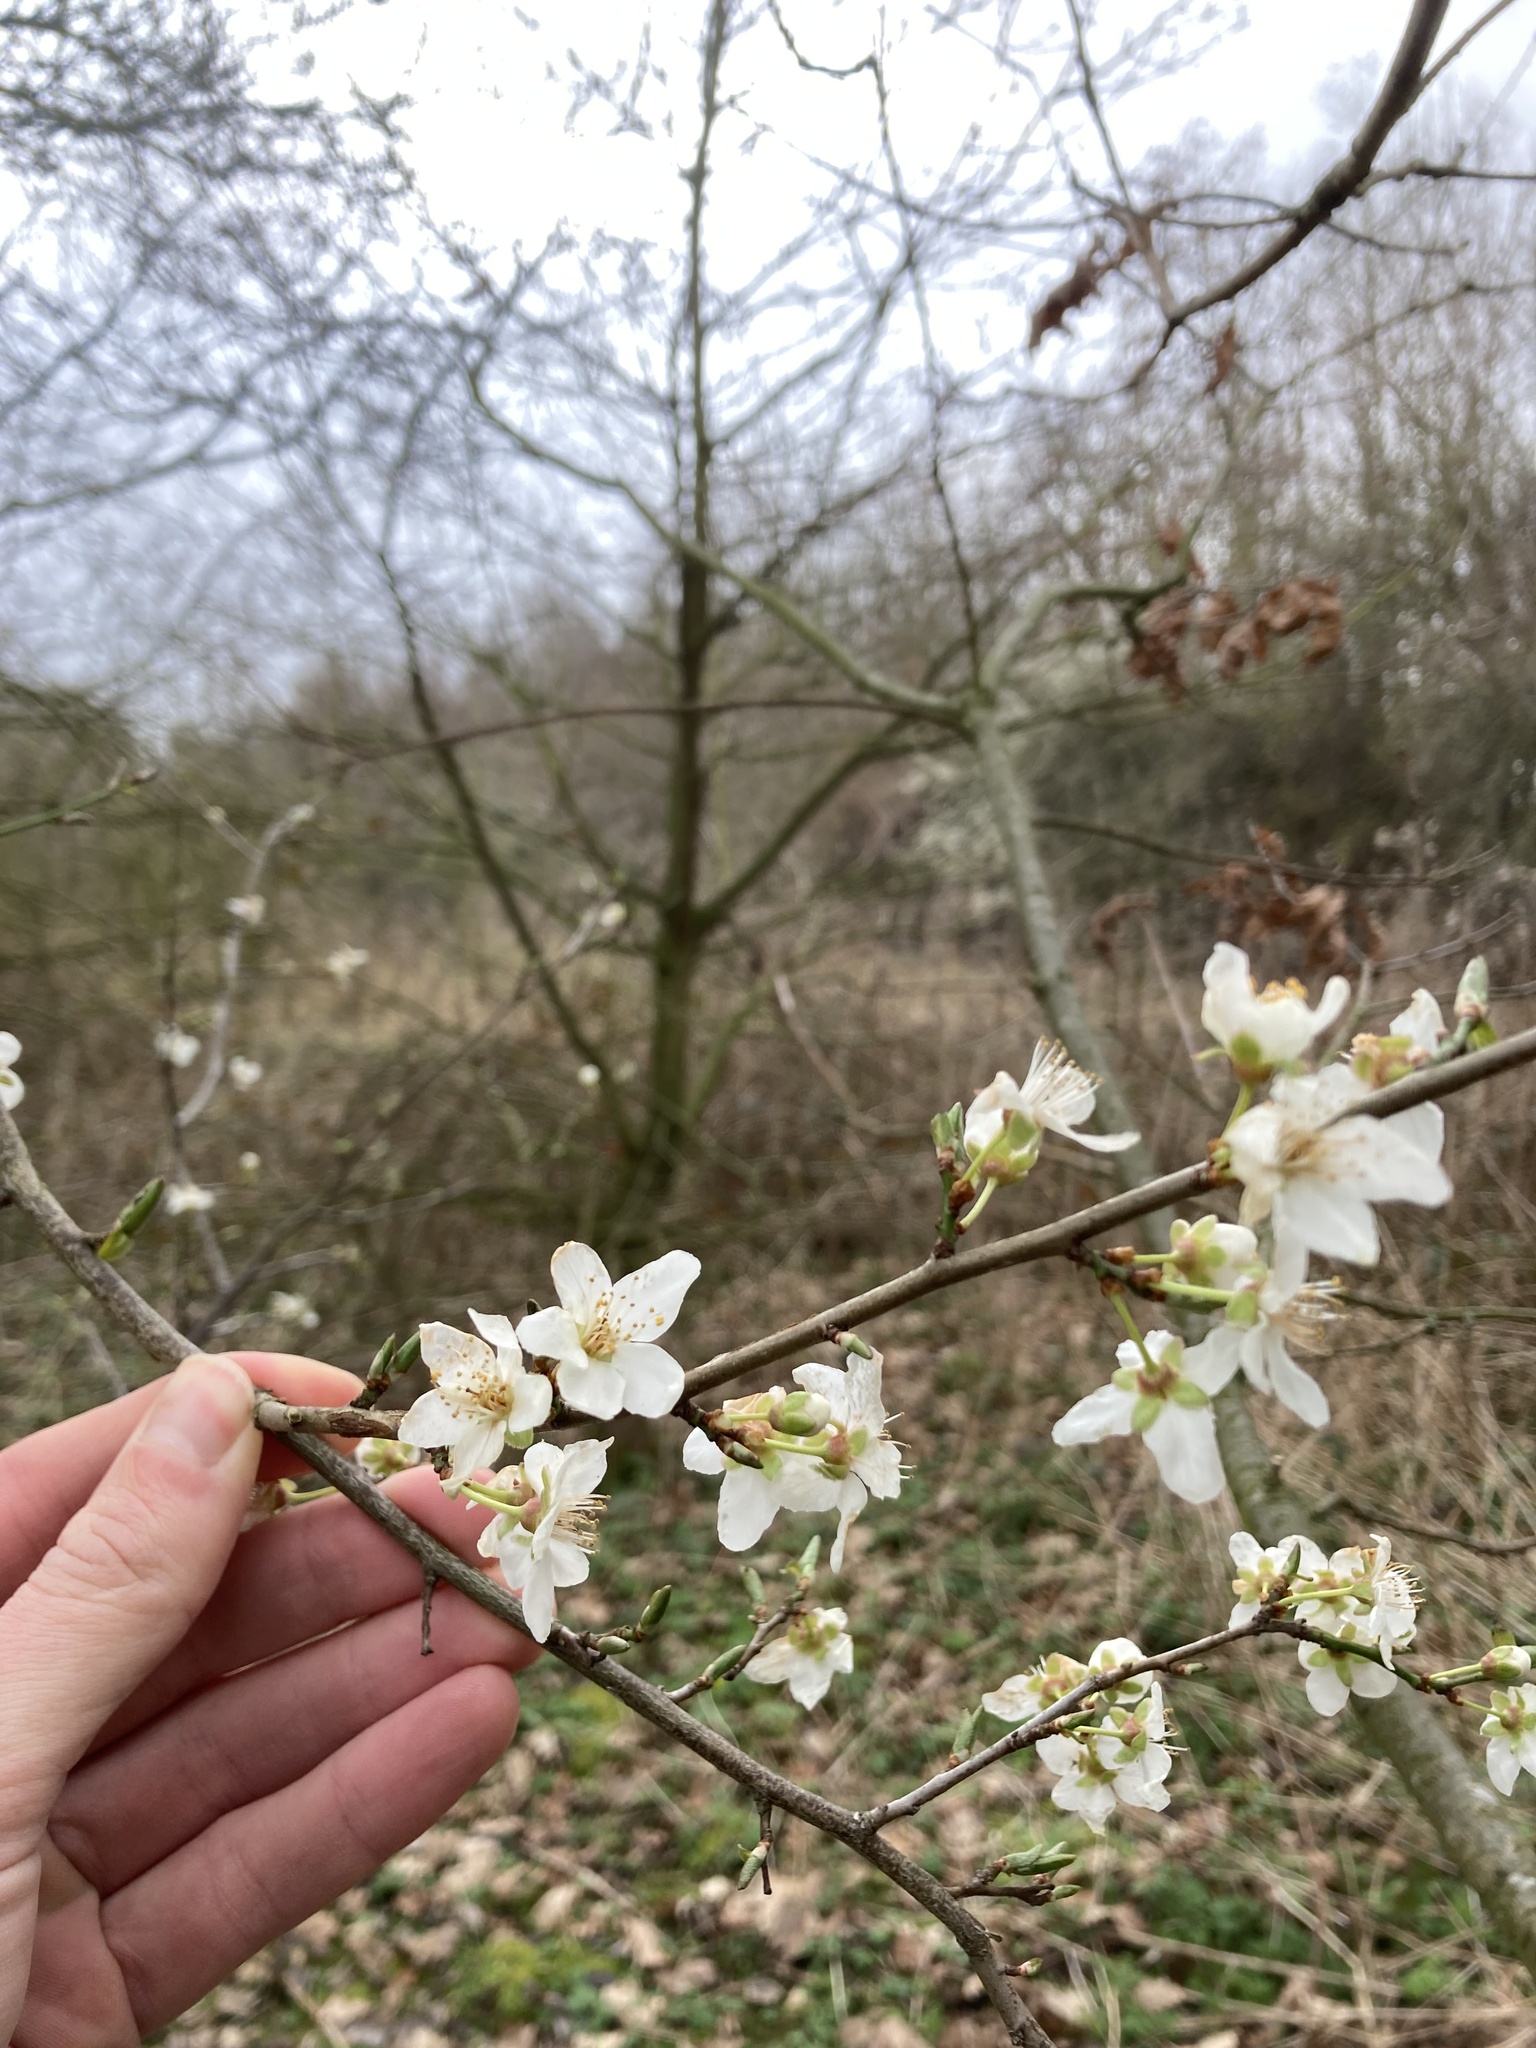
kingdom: Plantae
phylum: Tracheophyta
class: Magnoliopsida
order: Rosales
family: Rosaceae
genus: Prunus
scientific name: Prunus cerasifera
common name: Cherry plum
